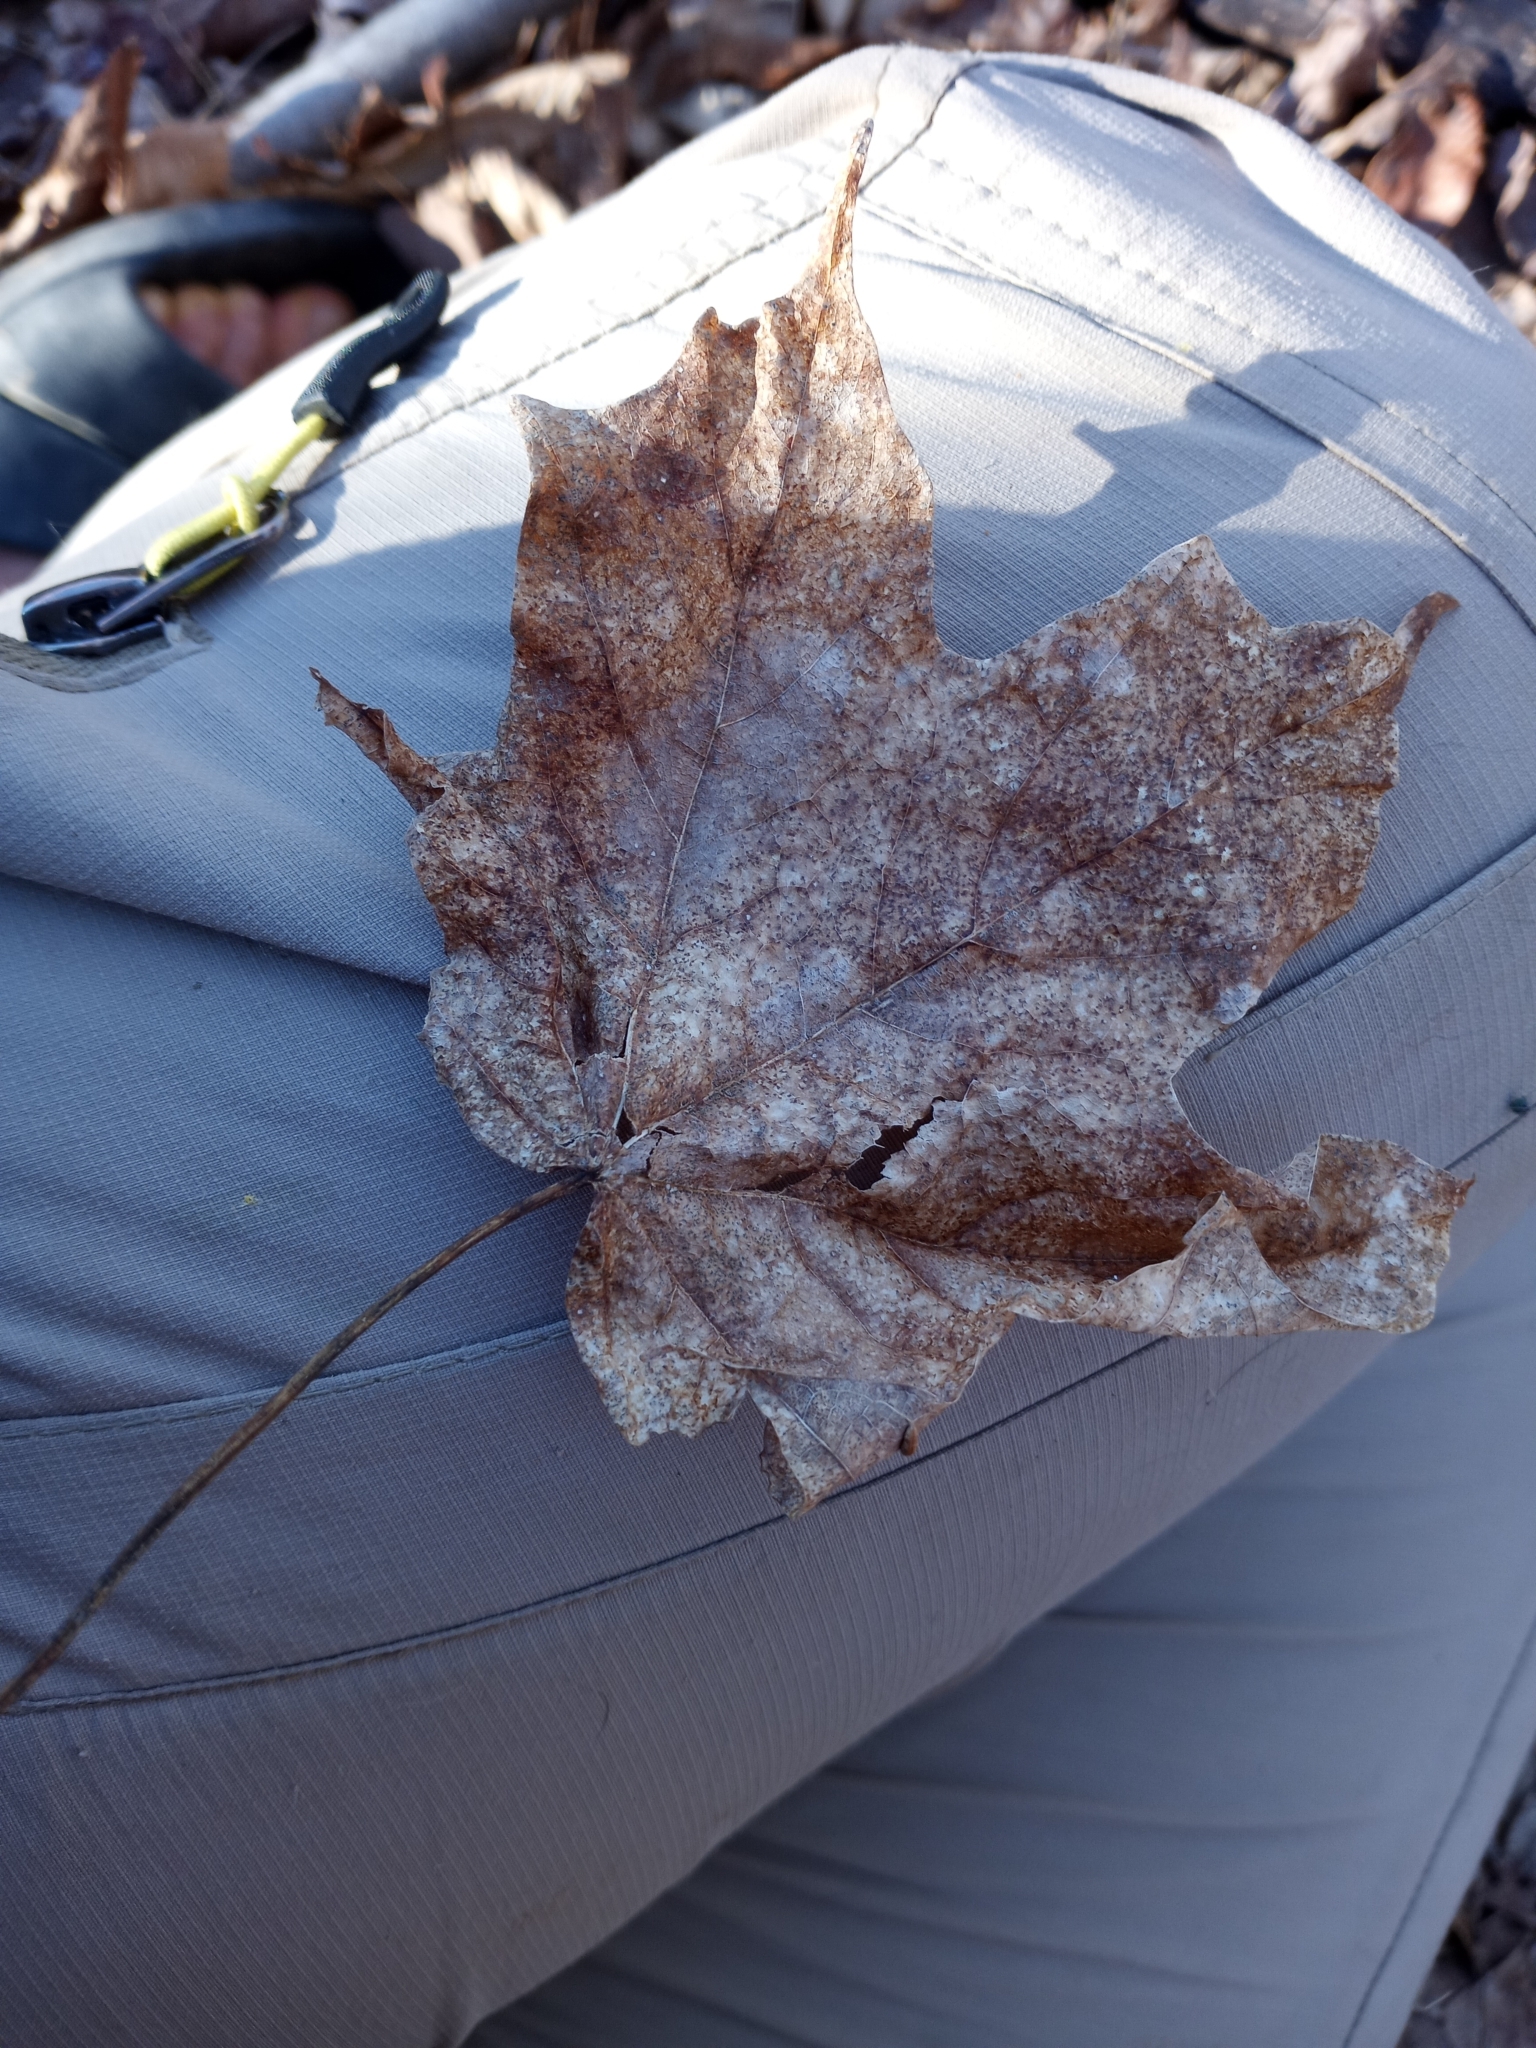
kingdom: Plantae
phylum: Tracheophyta
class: Magnoliopsida
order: Sapindales
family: Sapindaceae
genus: Acer
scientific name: Acer saccharum
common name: Sugar maple
